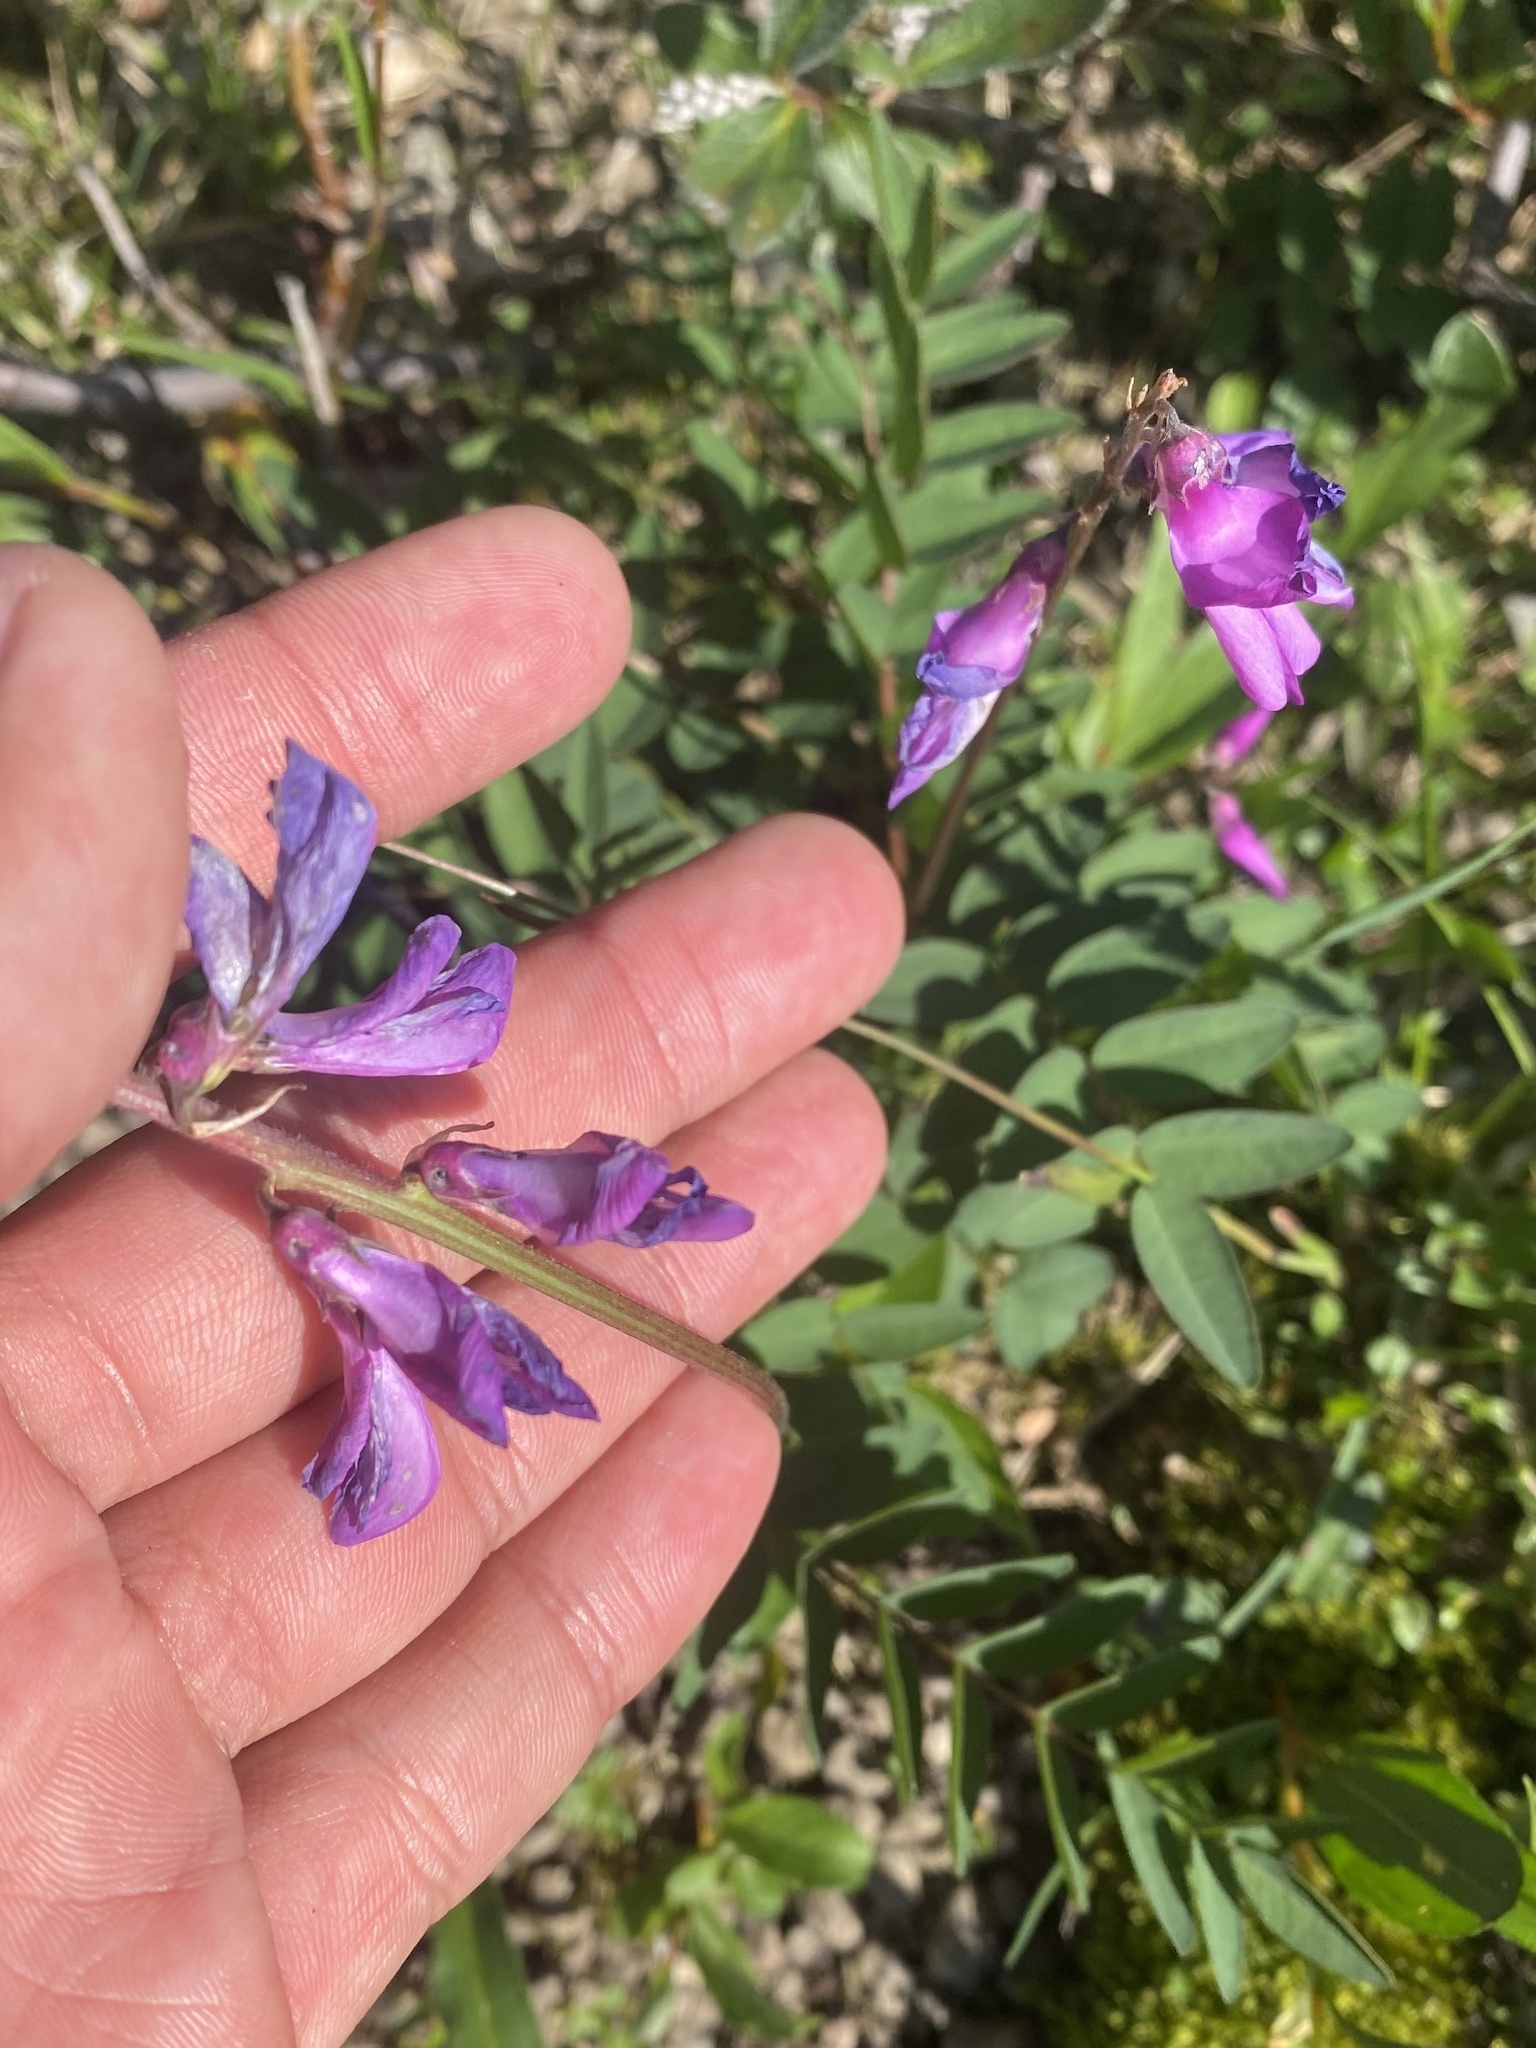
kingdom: Plantae
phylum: Tracheophyta
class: Magnoliopsida
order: Fabales
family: Fabaceae
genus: Hedysarum
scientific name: Hedysarum hedysaroides
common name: Alpine french-honeysuckle
